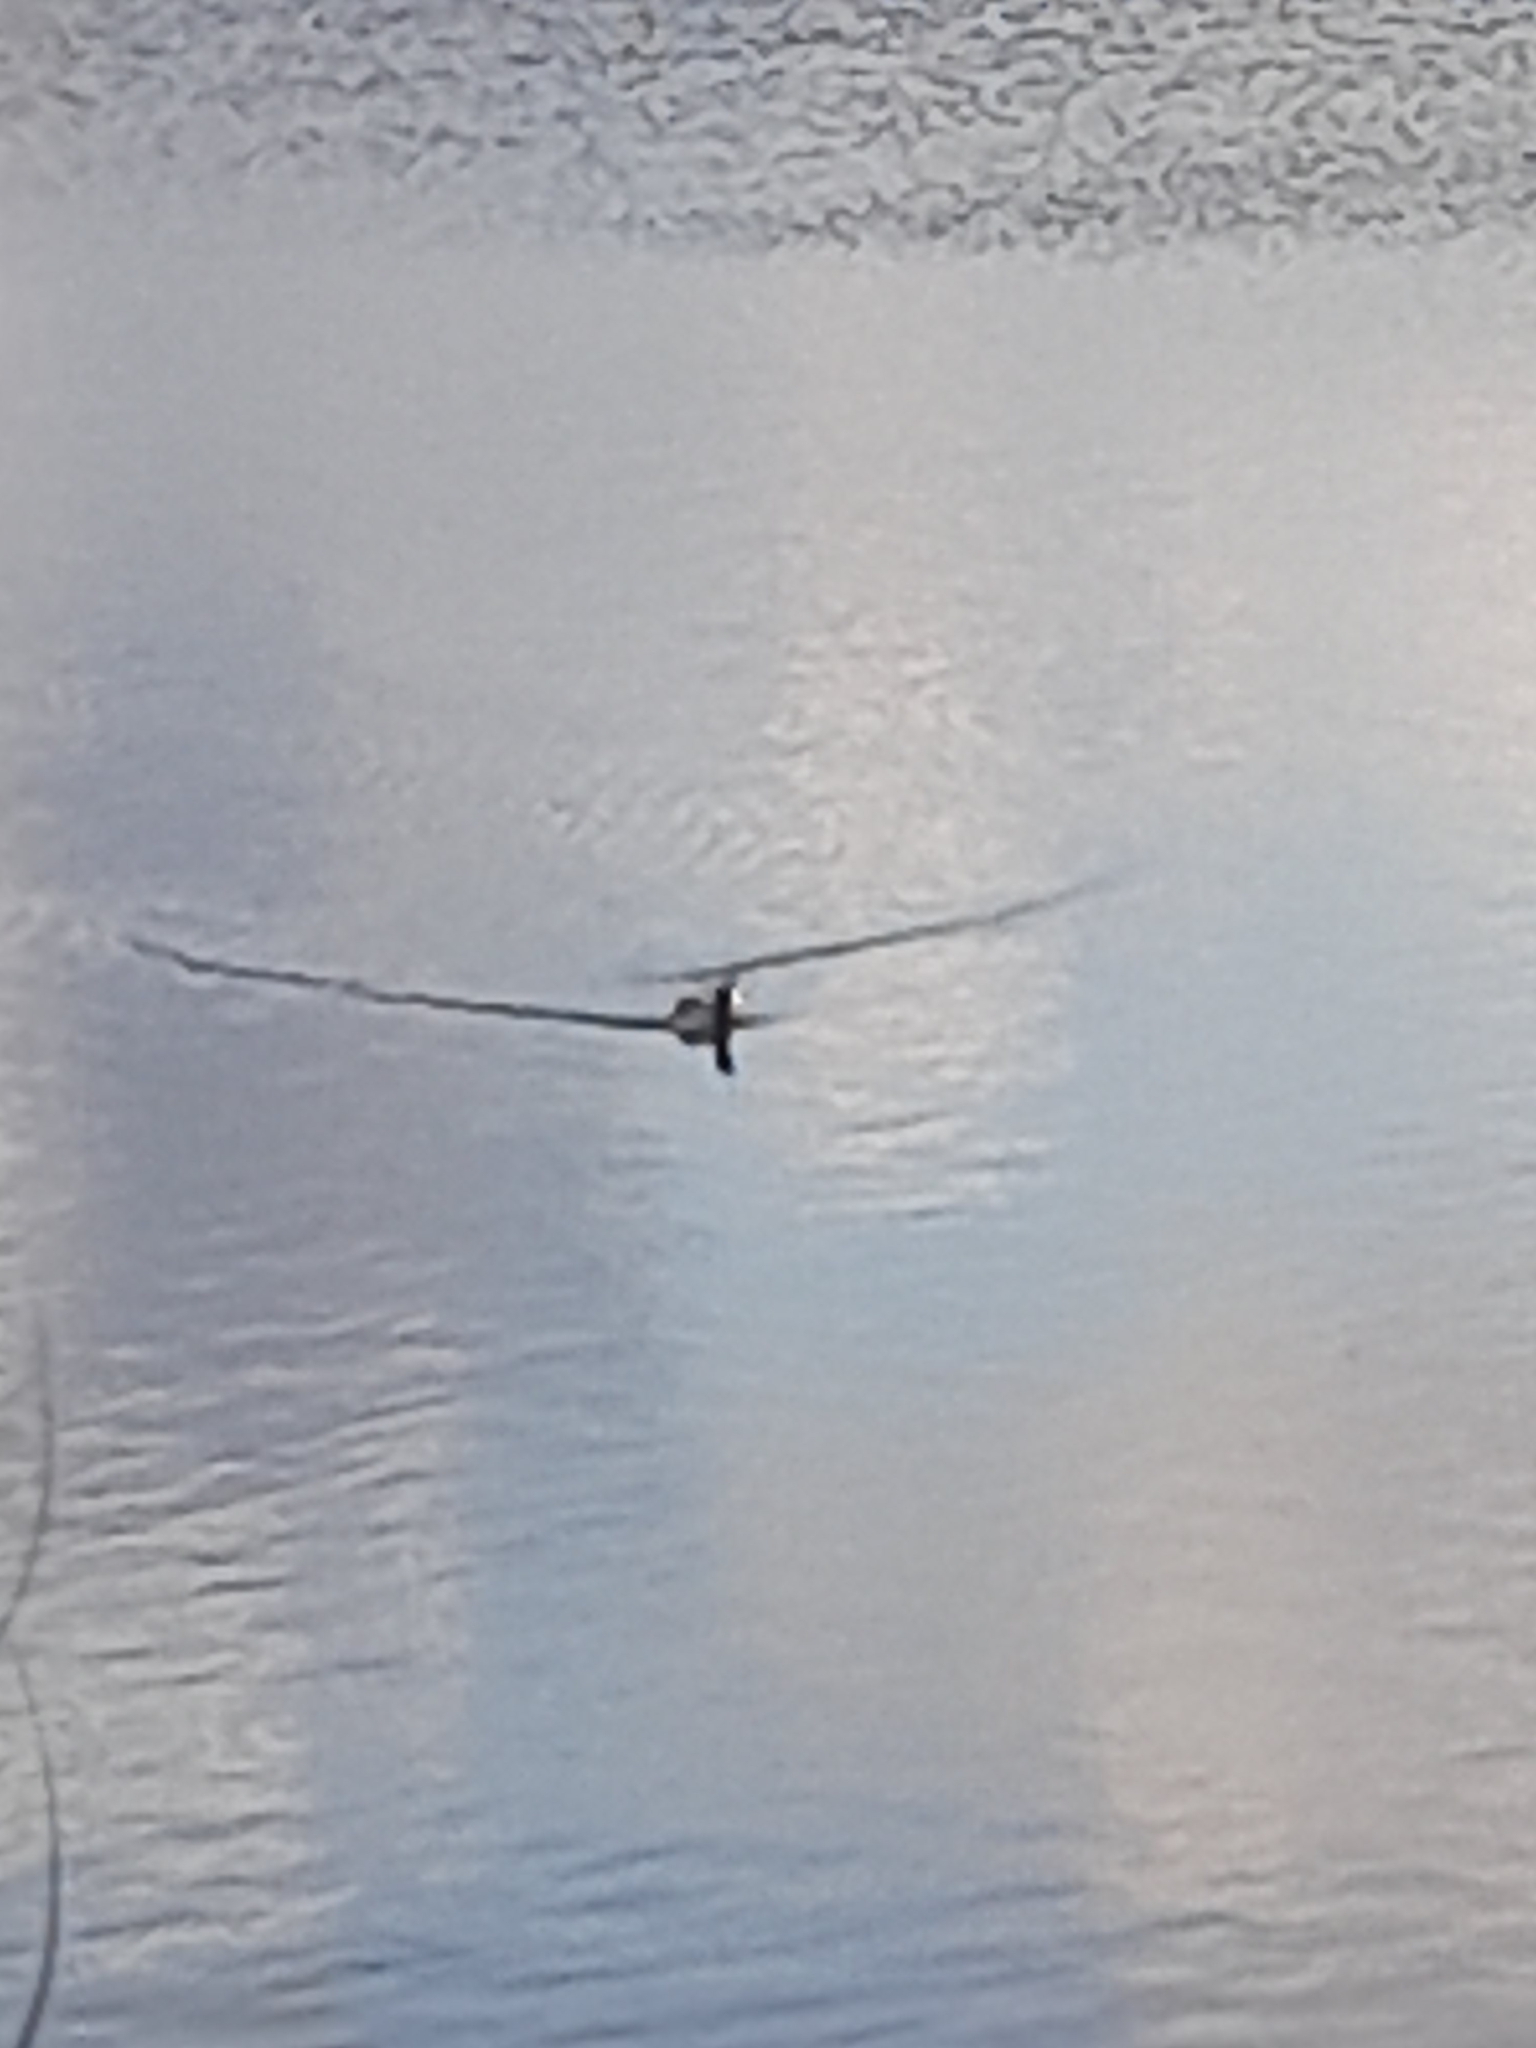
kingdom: Animalia
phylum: Chordata
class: Aves
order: Gruiformes
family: Rallidae
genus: Fulica
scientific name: Fulica atra
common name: Eurasian coot
